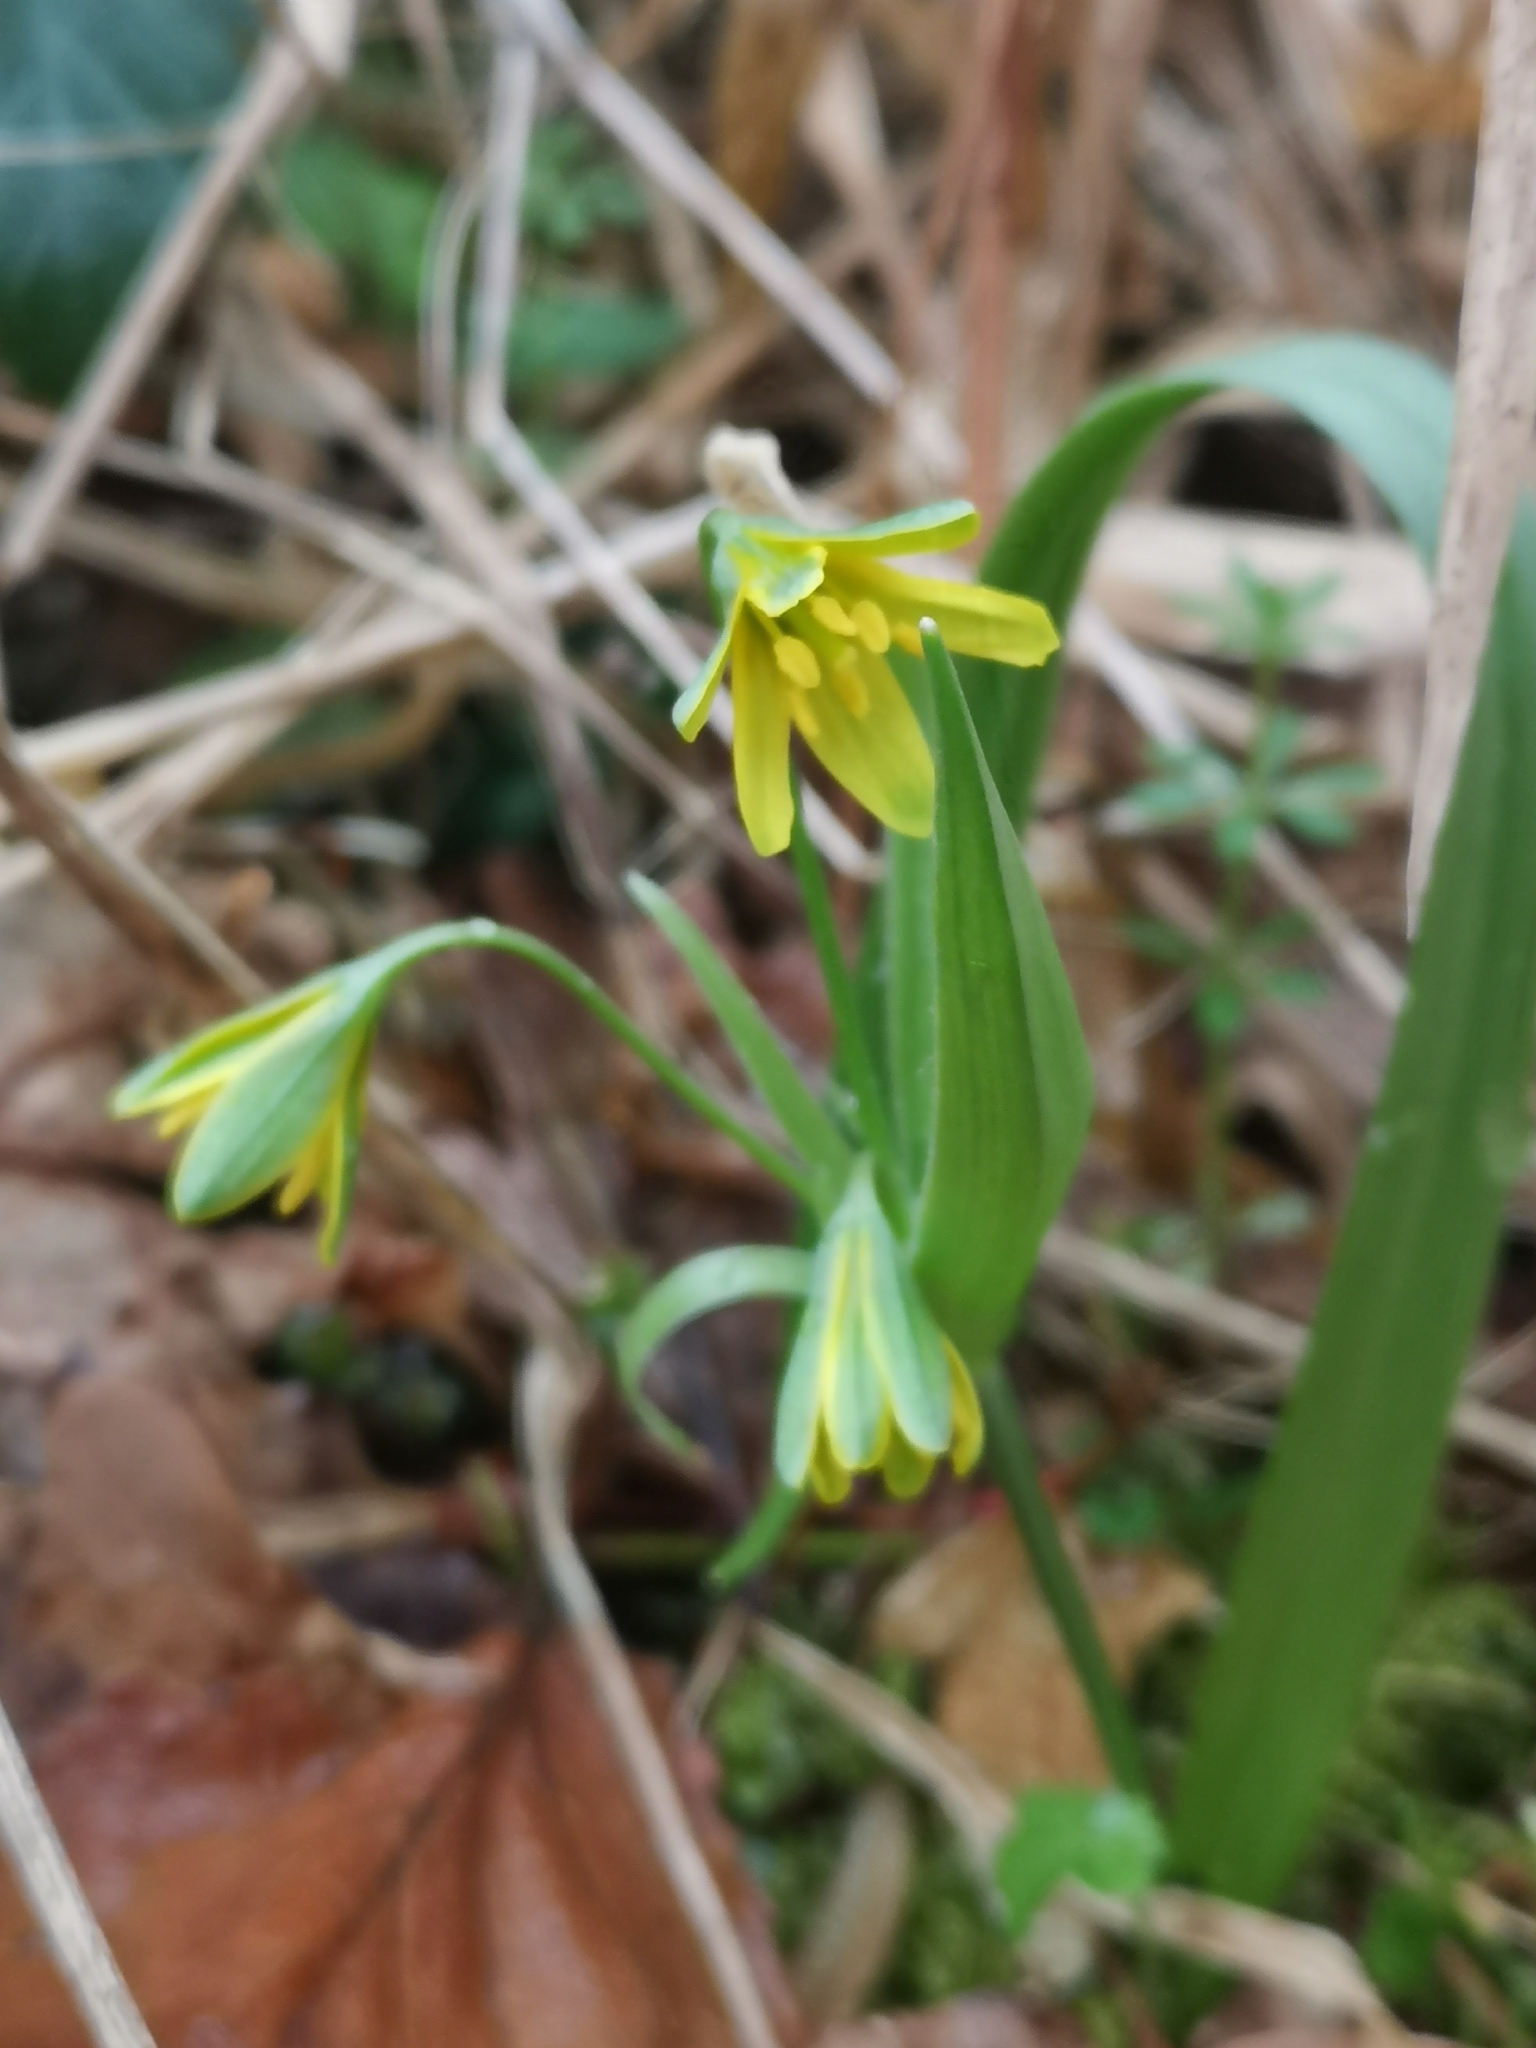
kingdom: Plantae
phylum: Tracheophyta
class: Liliopsida
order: Liliales
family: Liliaceae
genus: Gagea
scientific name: Gagea lutea
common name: Yellow star-of-bethlehem
